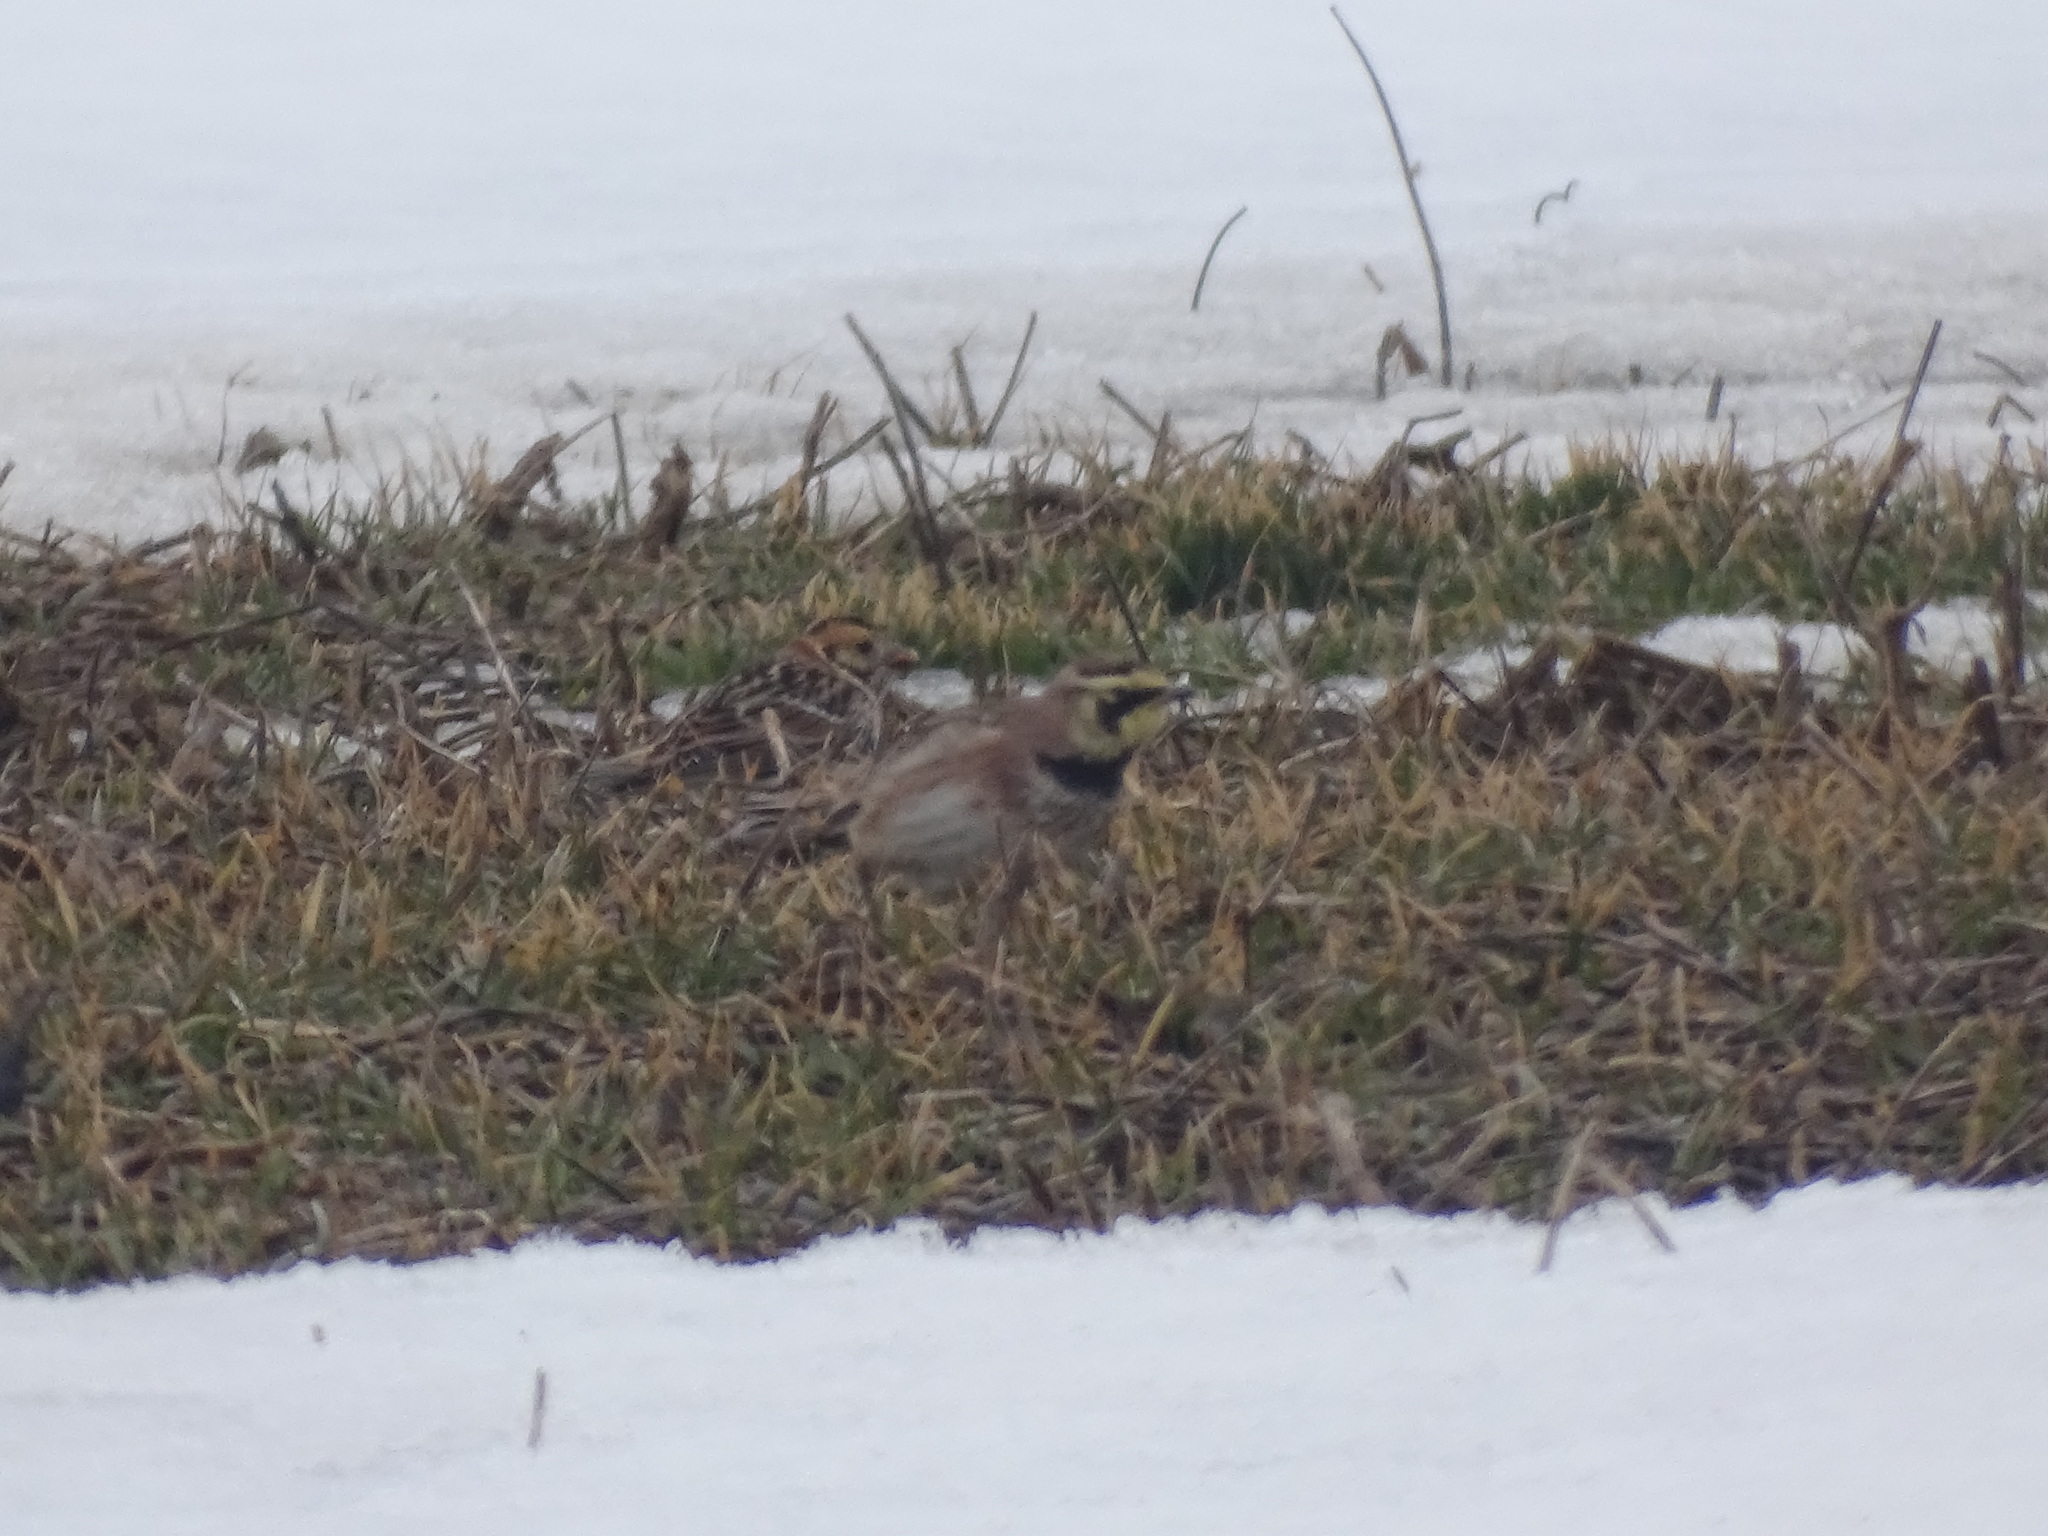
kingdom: Animalia
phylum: Chordata
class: Aves
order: Passeriformes
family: Alaudidae
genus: Eremophila
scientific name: Eremophila alpestris
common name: Horned lark
